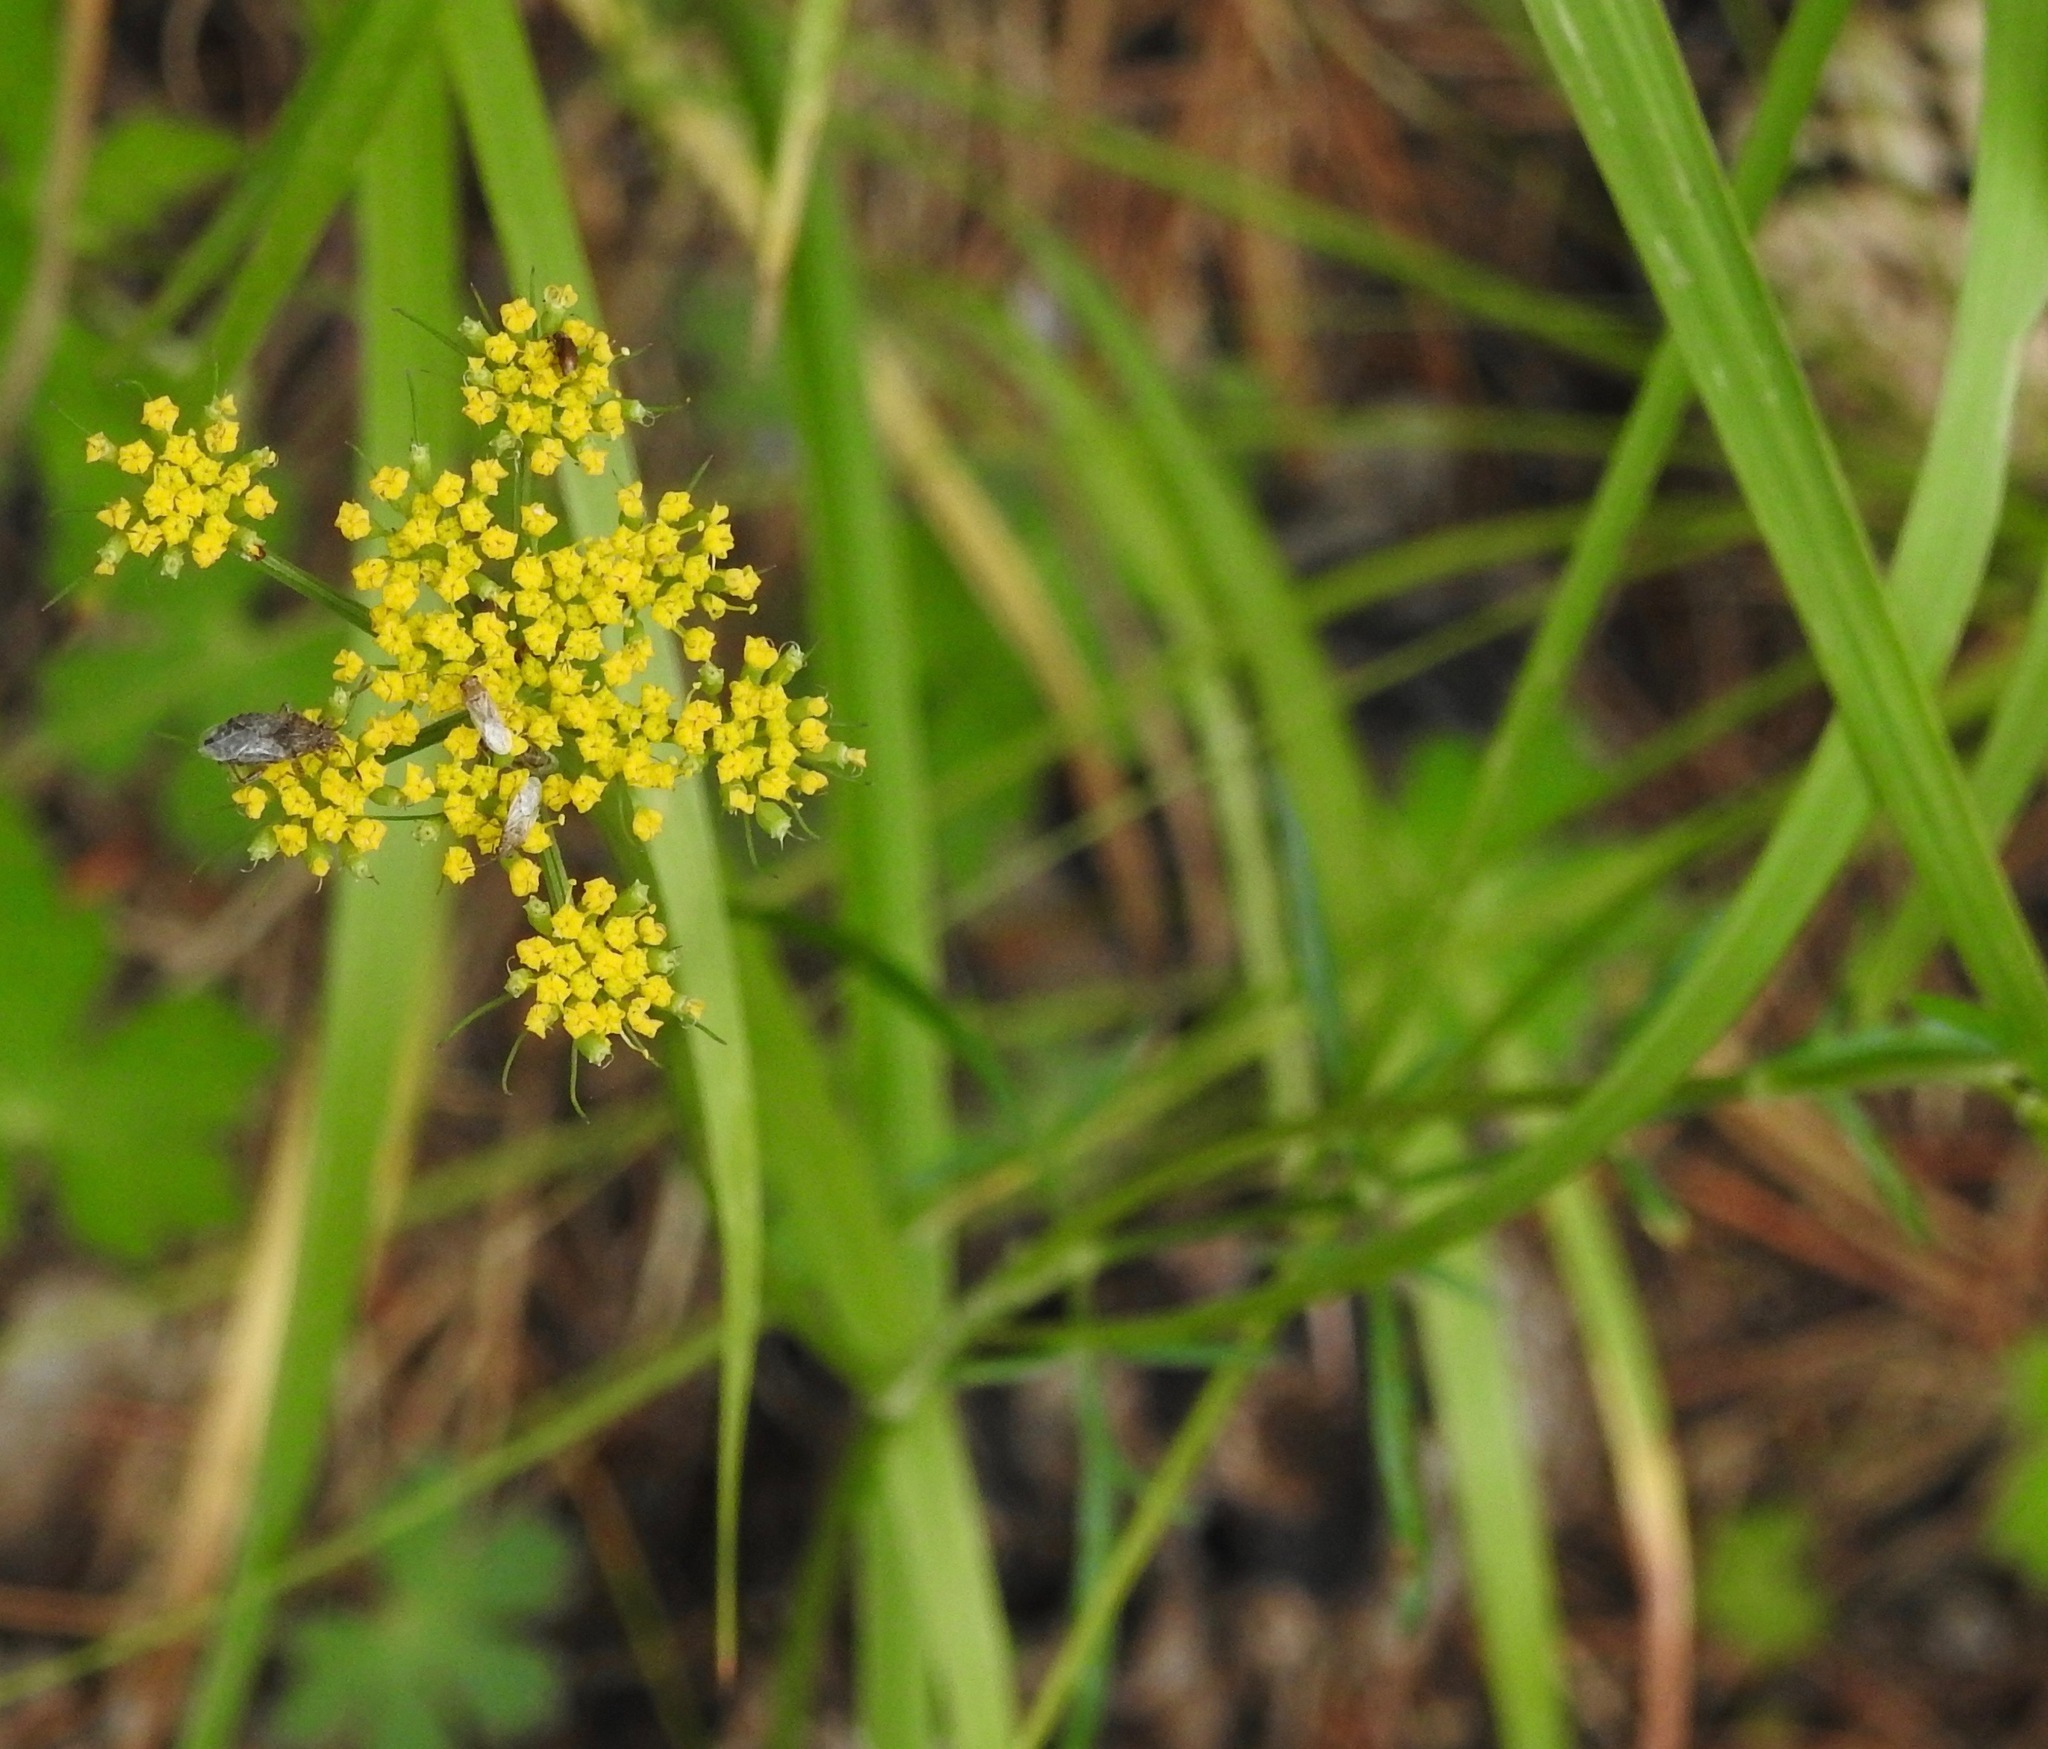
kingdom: Plantae
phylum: Tracheophyta
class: Magnoliopsida
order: Apiales
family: Apiaceae
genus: Cymopterus
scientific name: Cymopterus lemmonii
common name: Lemmon's spring-parsley
